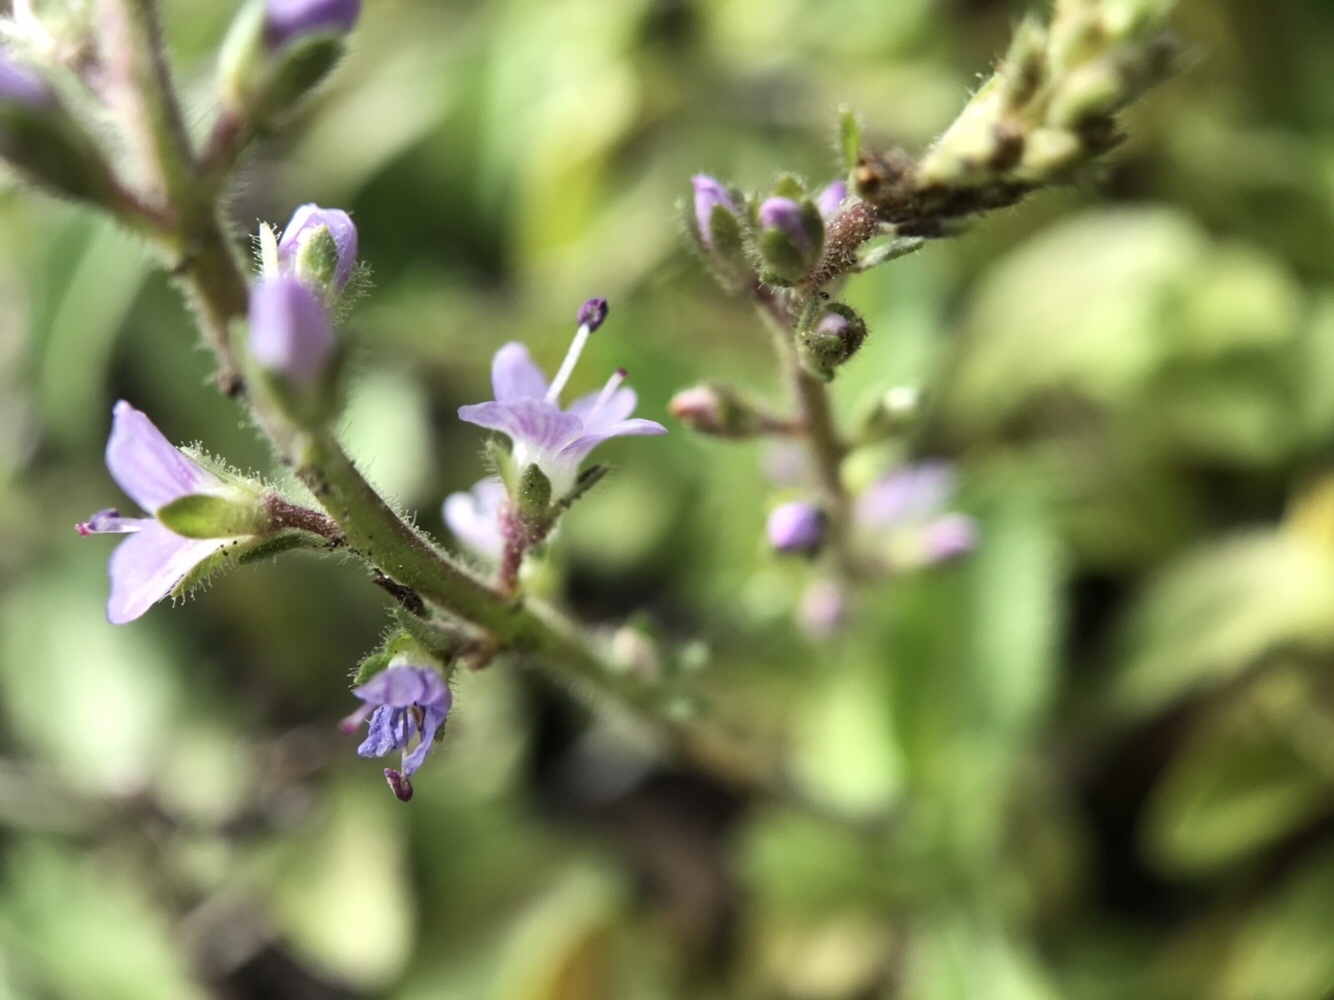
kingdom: Plantae
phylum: Tracheophyta
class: Magnoliopsida
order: Lamiales
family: Plantaginaceae
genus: Veronica
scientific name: Veronica officinalis
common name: Common speedwell
